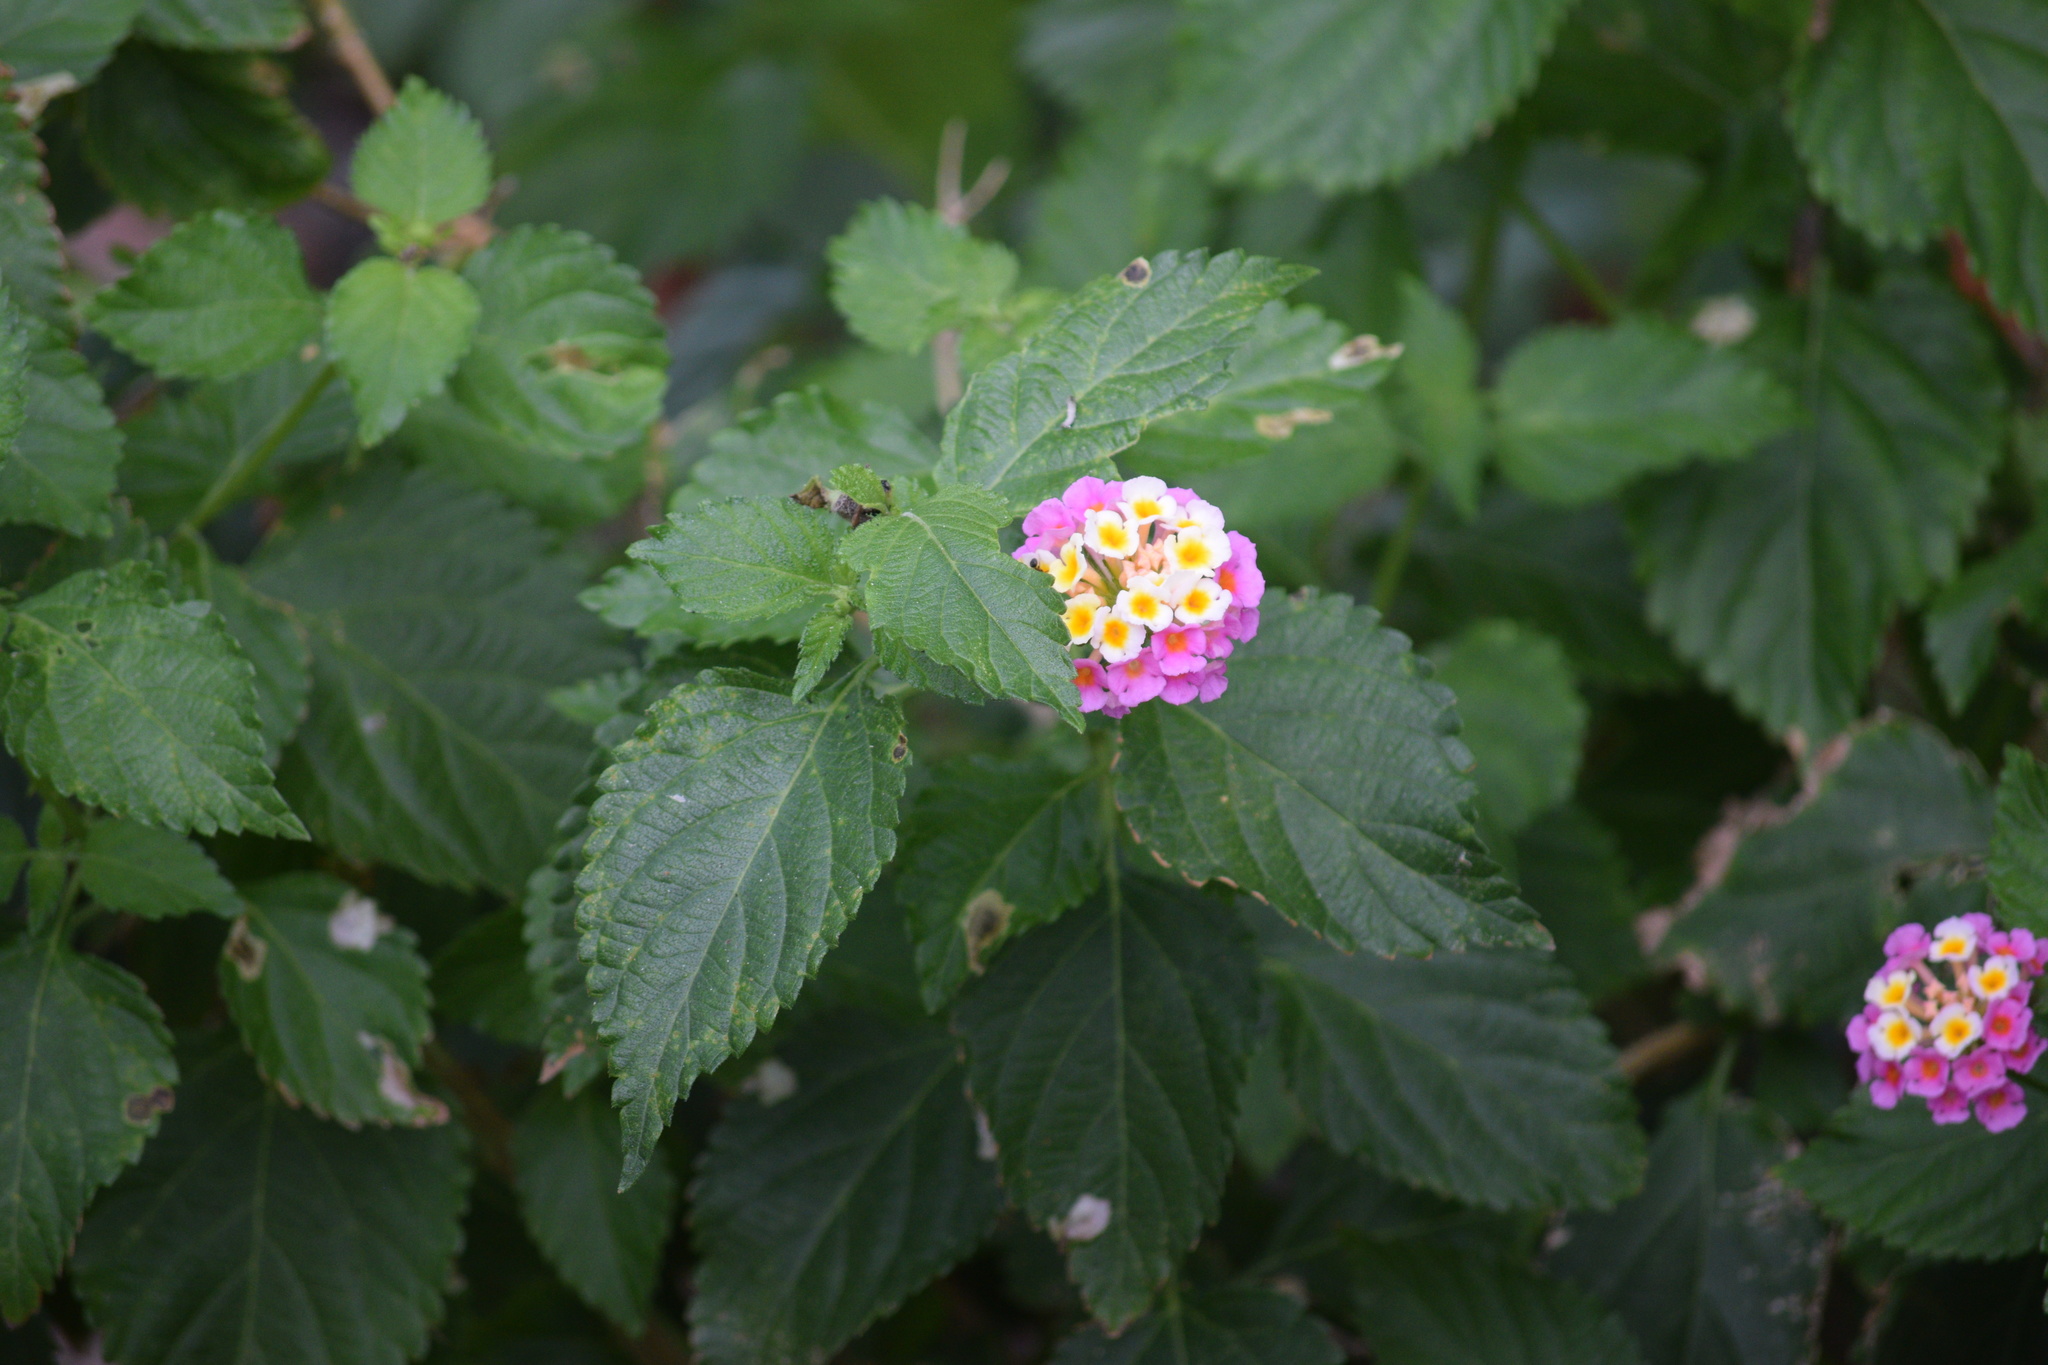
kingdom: Plantae
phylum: Tracheophyta
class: Magnoliopsida
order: Lamiales
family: Verbenaceae
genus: Lantana
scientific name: Lantana strigocamara
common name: Lantana
